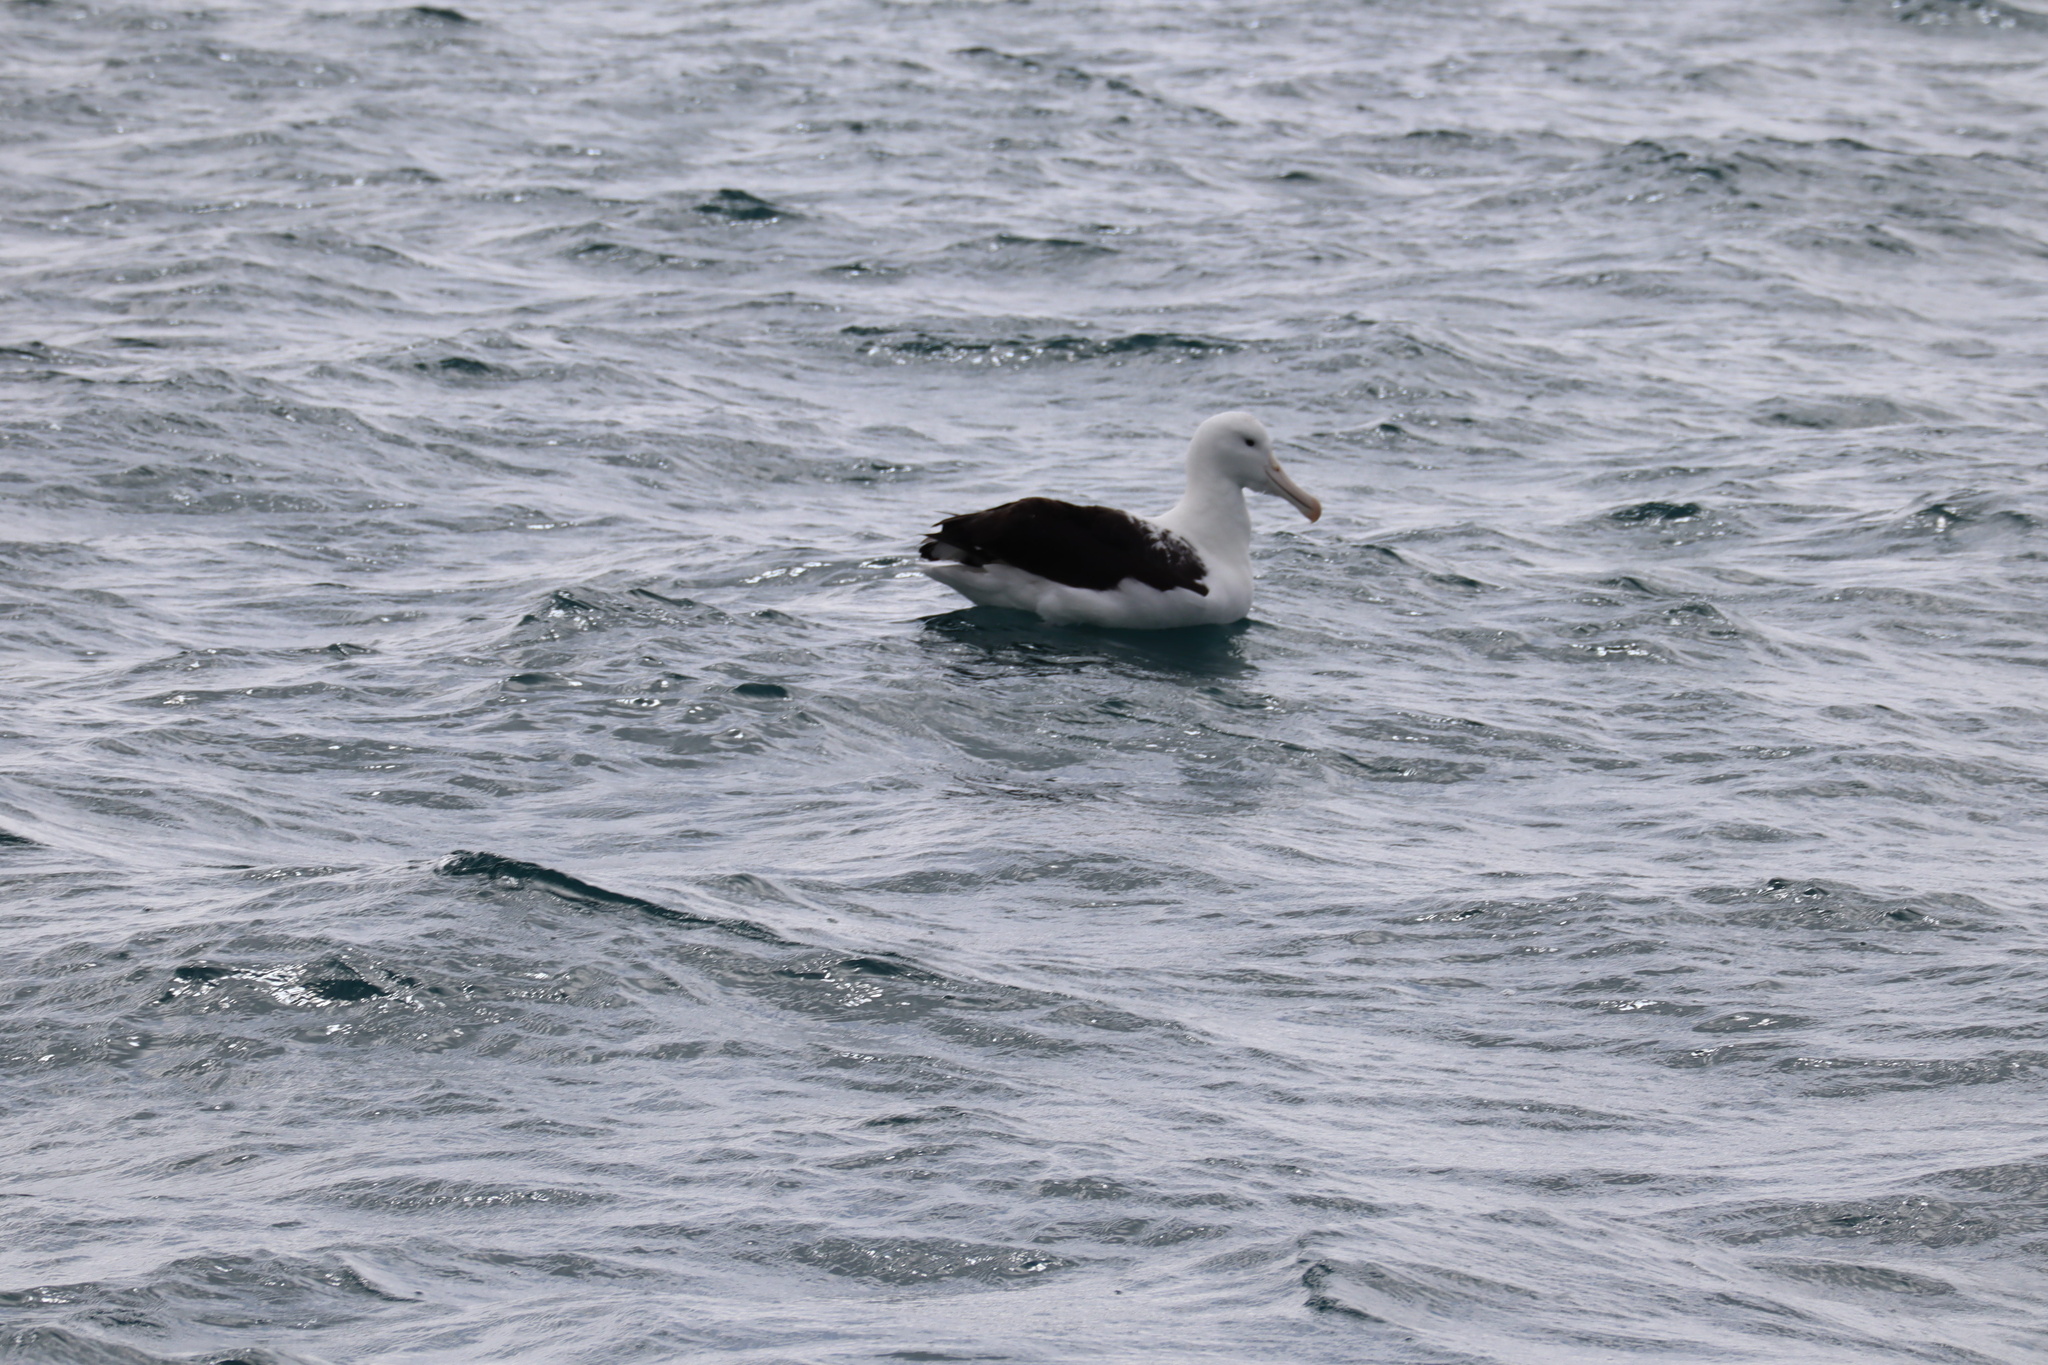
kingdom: Animalia
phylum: Chordata
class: Aves
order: Procellariiformes
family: Diomedeidae
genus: Diomedea
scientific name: Diomedea sanfordi
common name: Northern royal albatross
